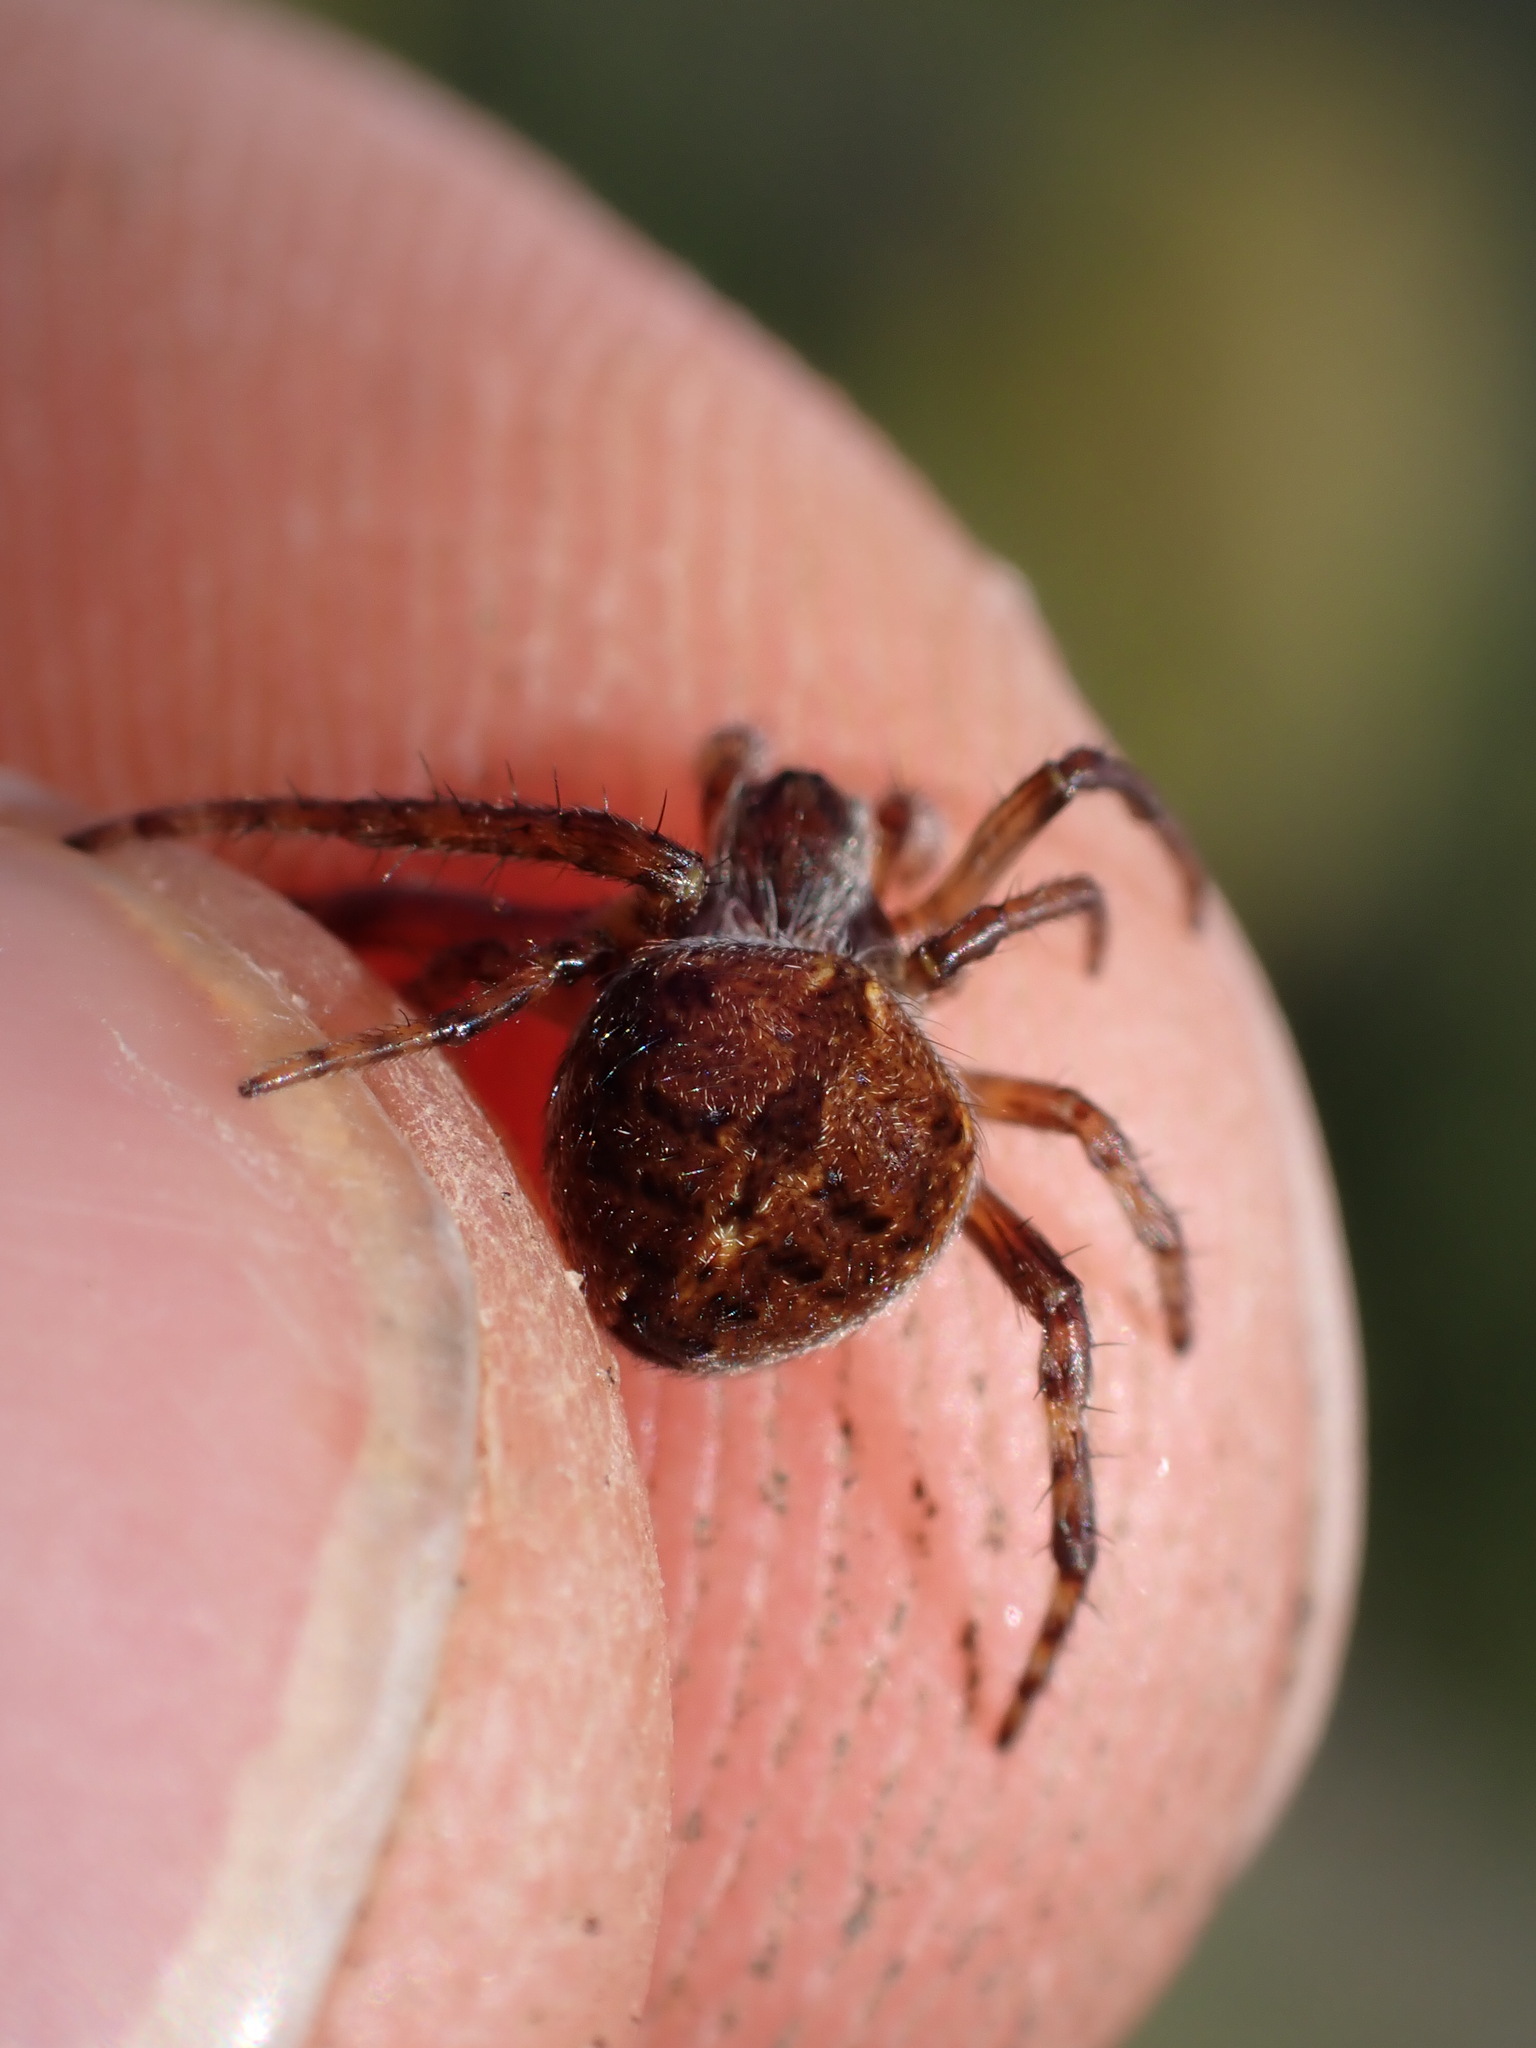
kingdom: Animalia
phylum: Arthropoda
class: Arachnida
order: Araneae
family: Araneidae
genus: Agalenatea
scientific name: Agalenatea redii
